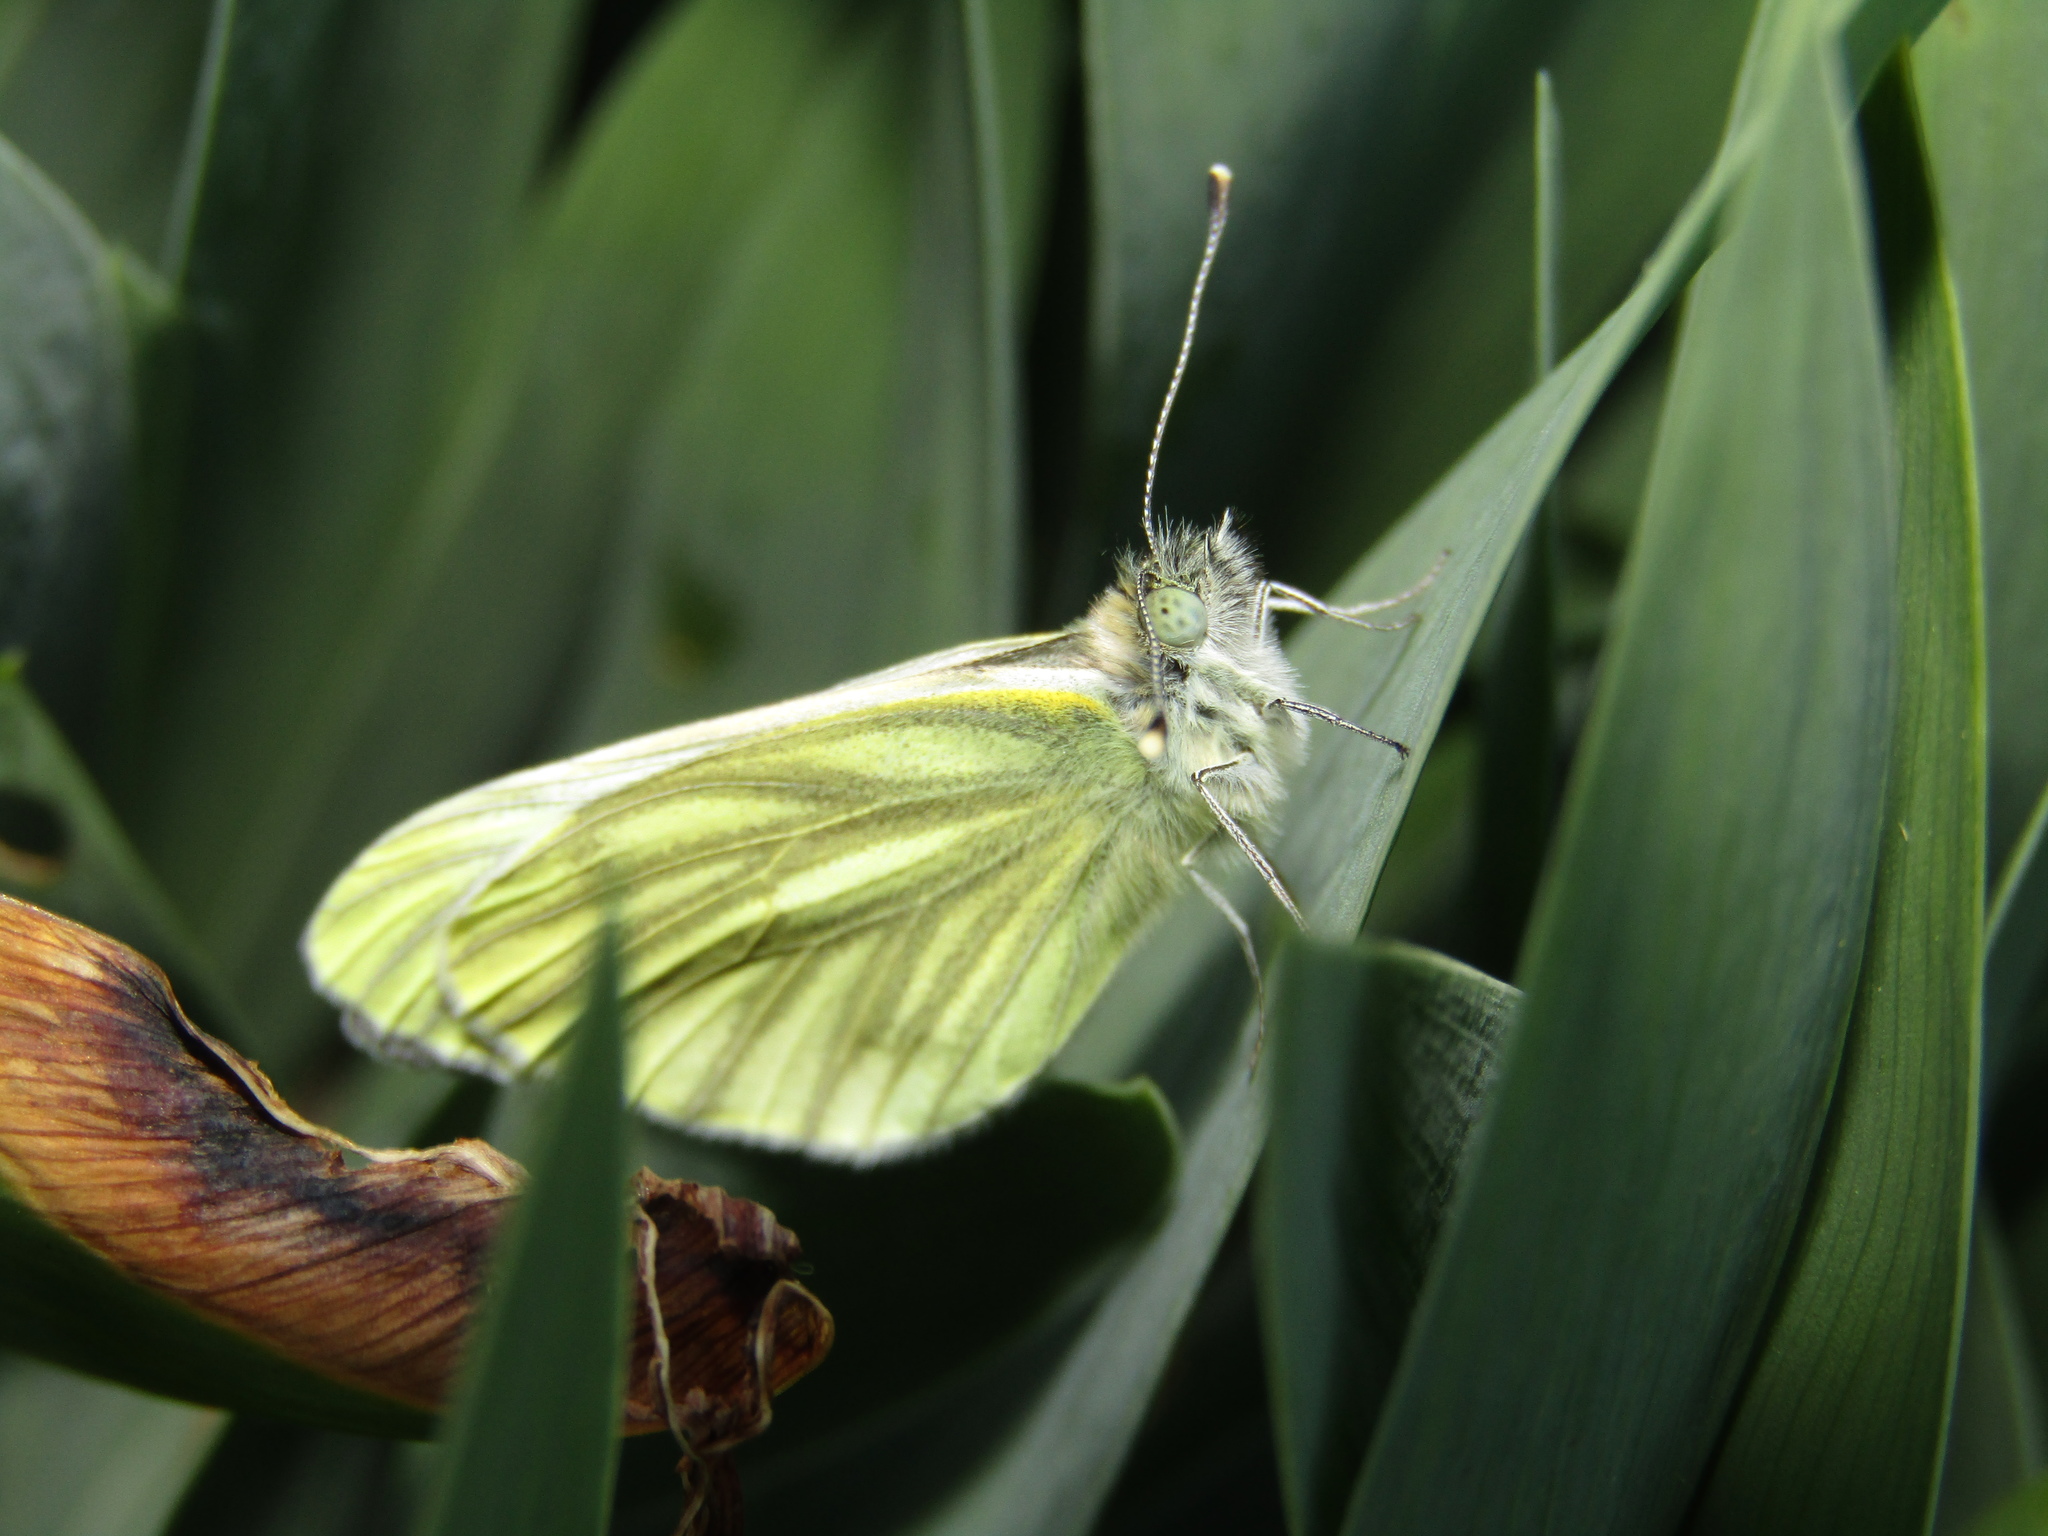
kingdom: Animalia
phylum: Arthropoda
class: Insecta
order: Lepidoptera
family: Pieridae
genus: Pieris
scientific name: Pieris napi
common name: Green-veined white
